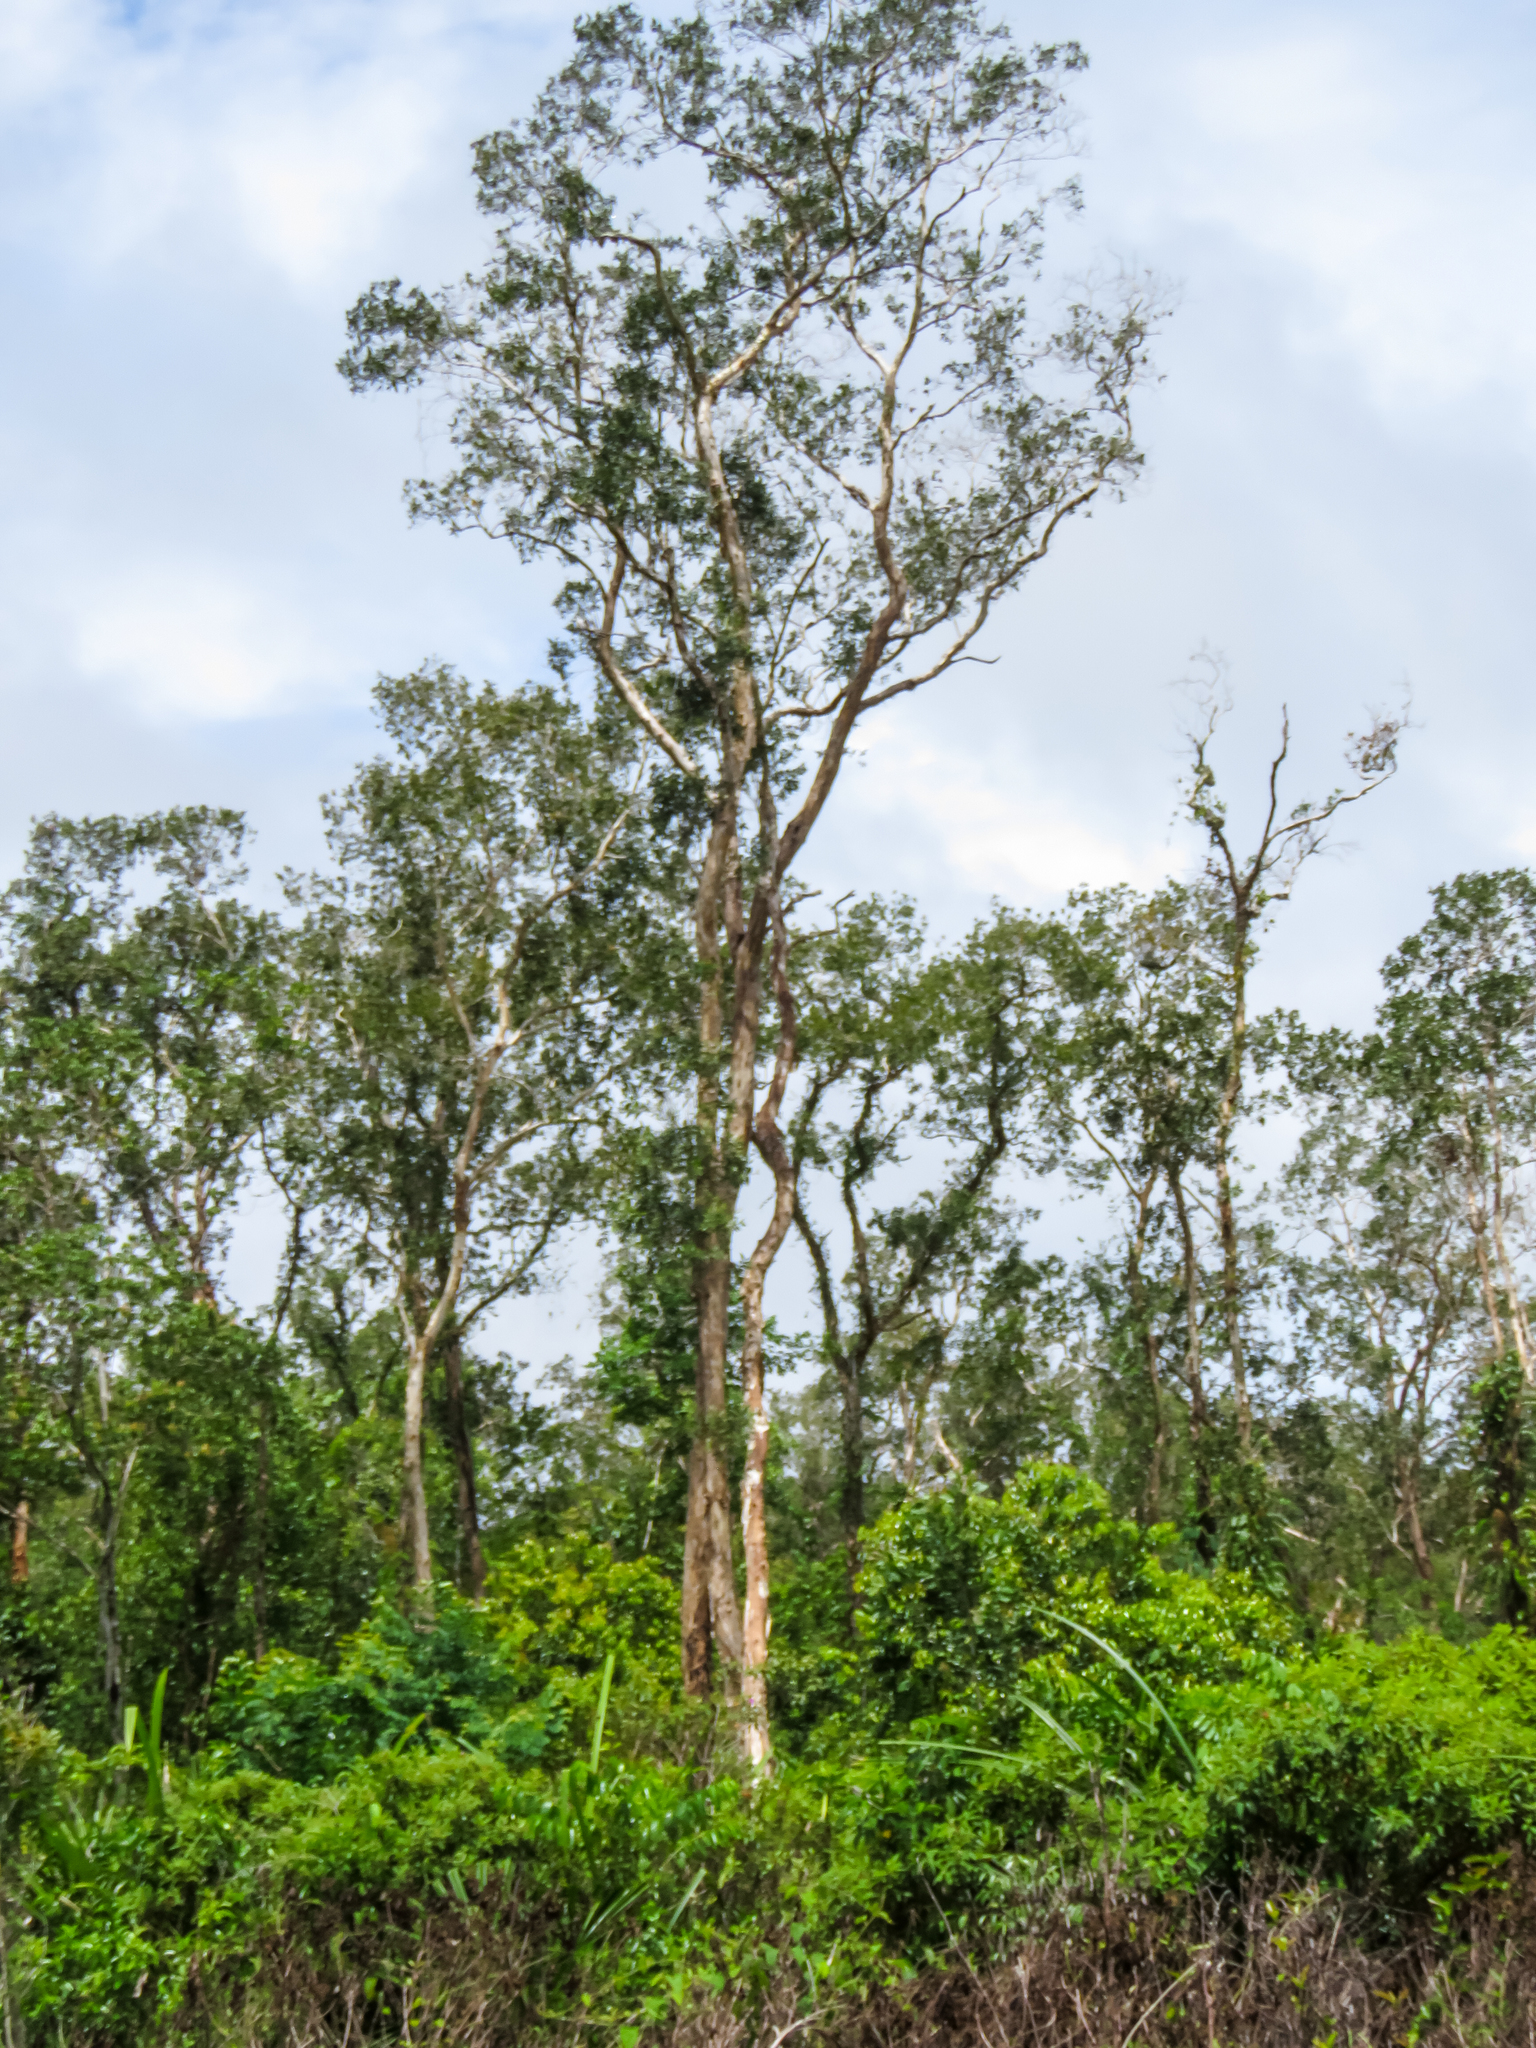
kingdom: Plantae
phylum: Tracheophyta
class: Magnoliopsida
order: Myrtales
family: Myrtaceae
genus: Melaleuca
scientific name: Melaleuca cajuputi
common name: Cajuput
